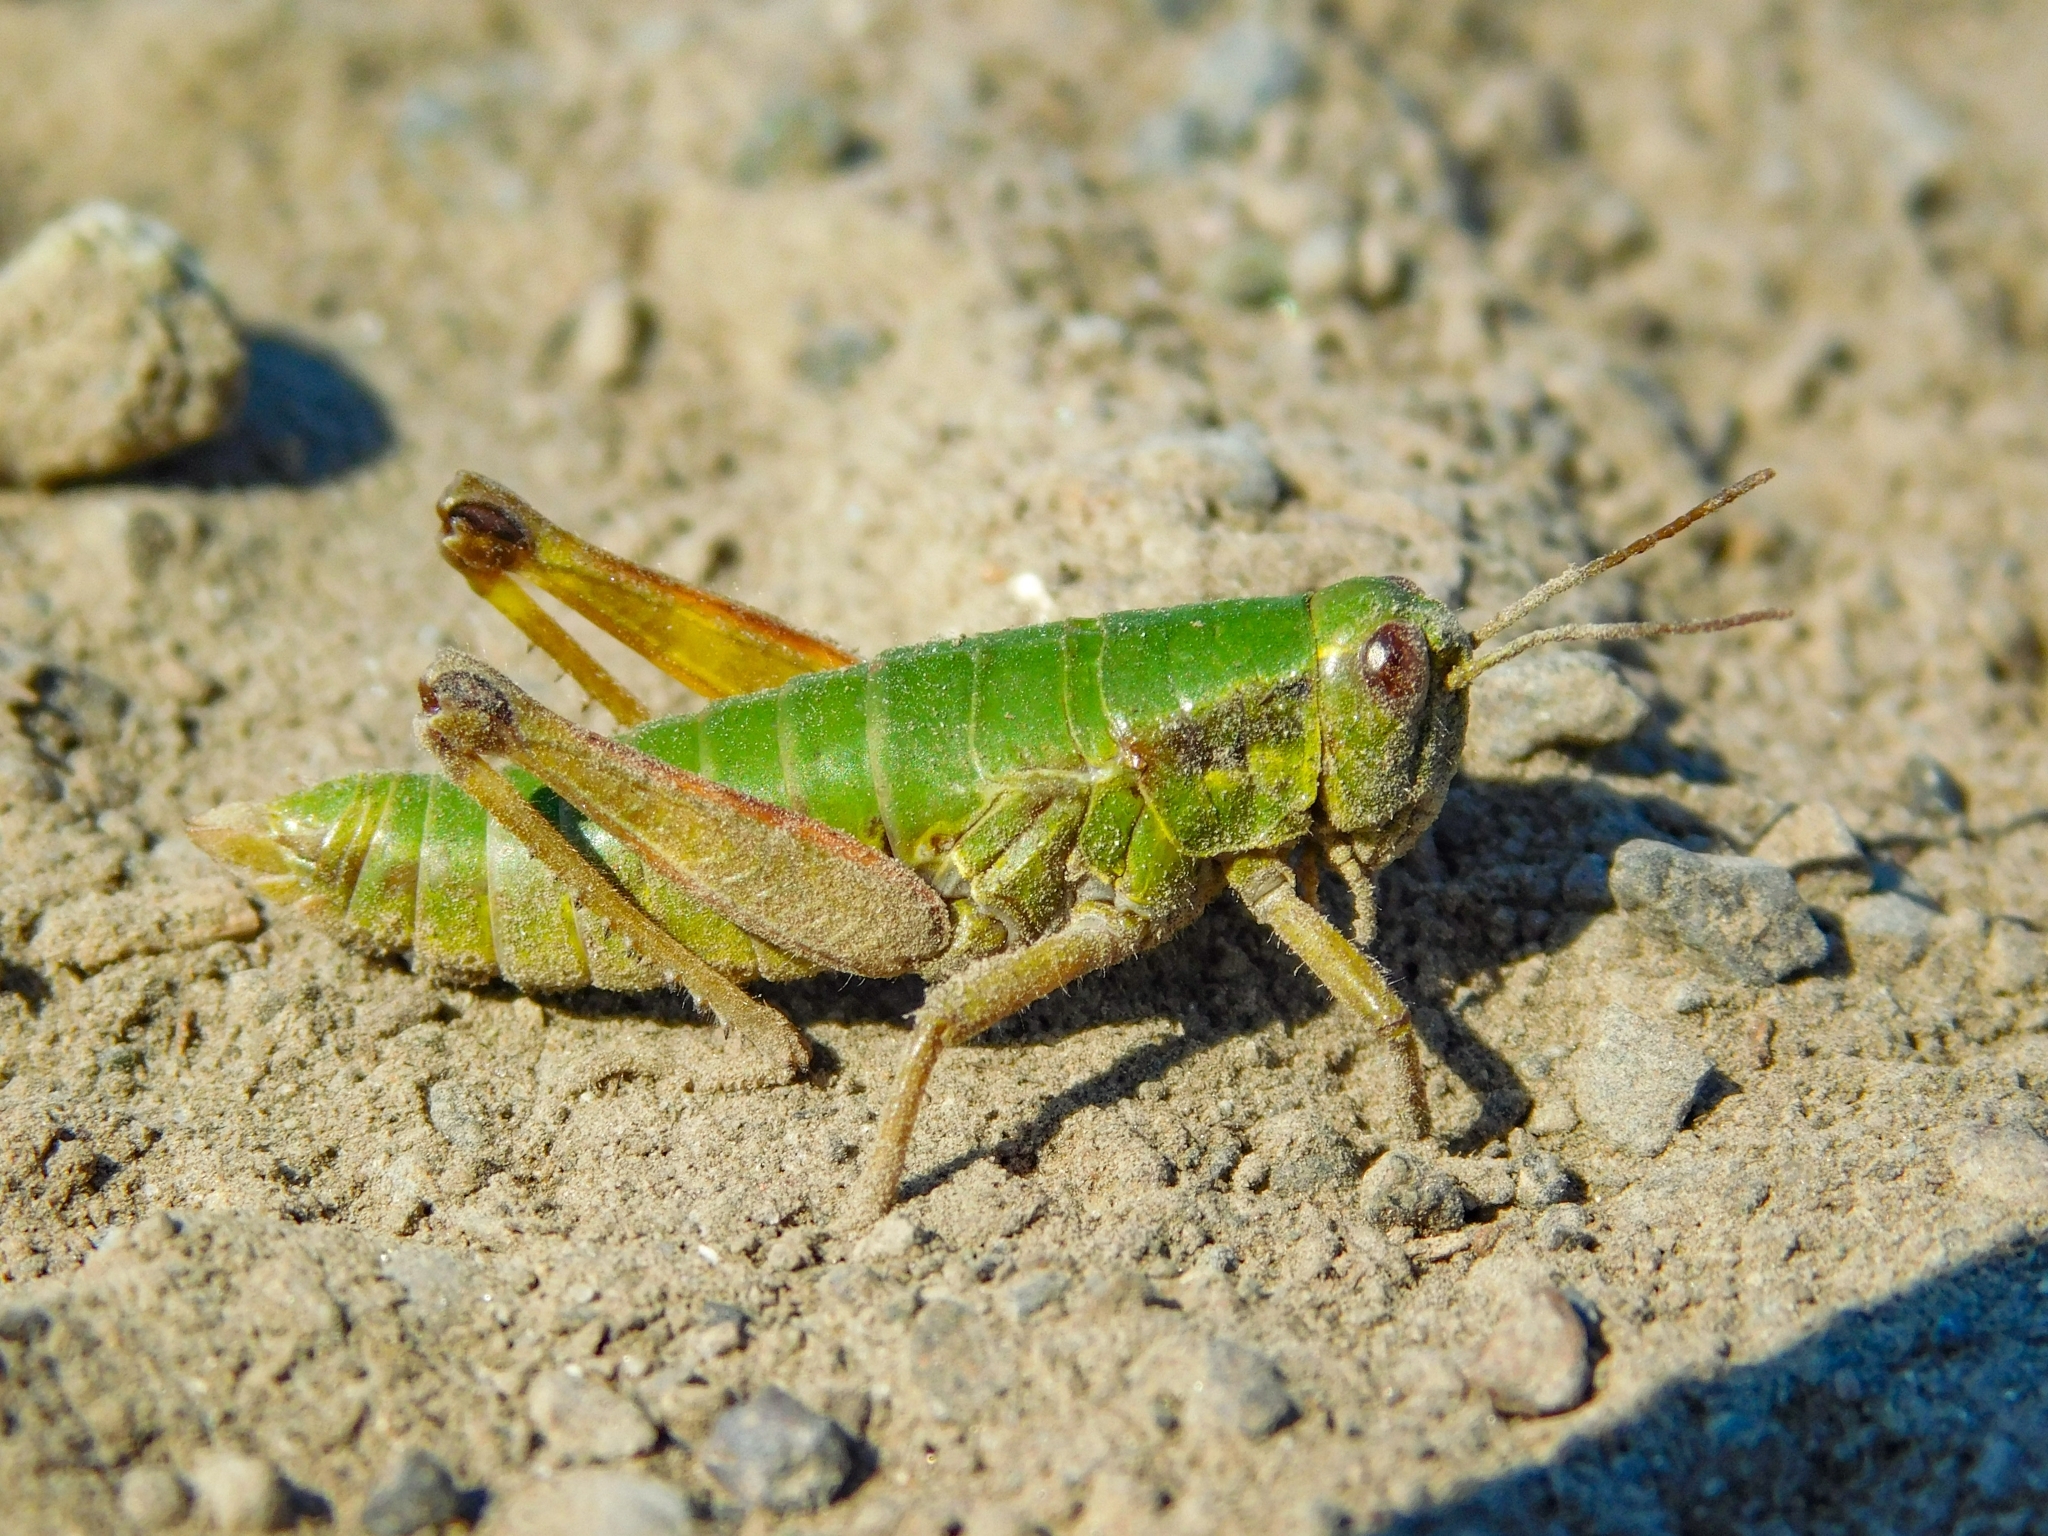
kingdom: Animalia
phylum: Arthropoda
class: Insecta
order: Orthoptera
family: Acrididae
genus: Zubovskya
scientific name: Zubovskya koeppeni
